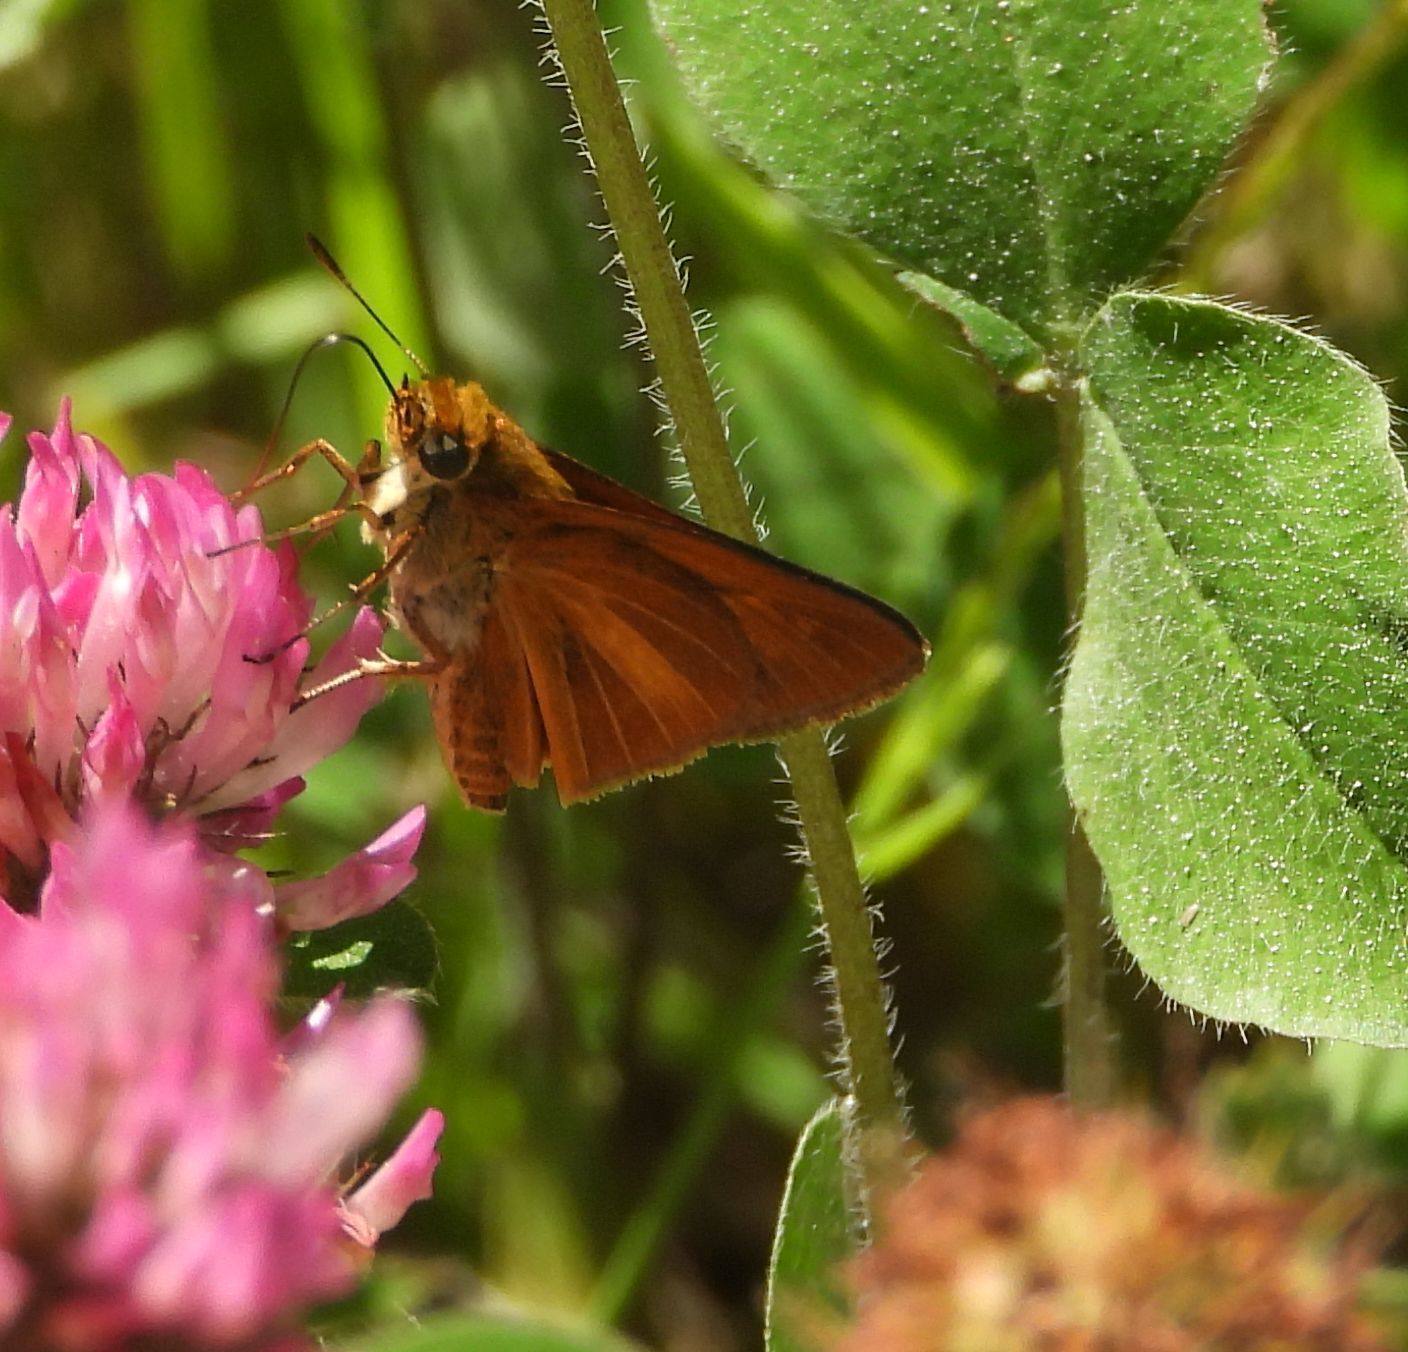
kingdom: Animalia
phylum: Arthropoda
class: Insecta
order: Lepidoptera
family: Hesperiidae
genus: Euphyes
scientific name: Euphyes dion
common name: Dion skipper
